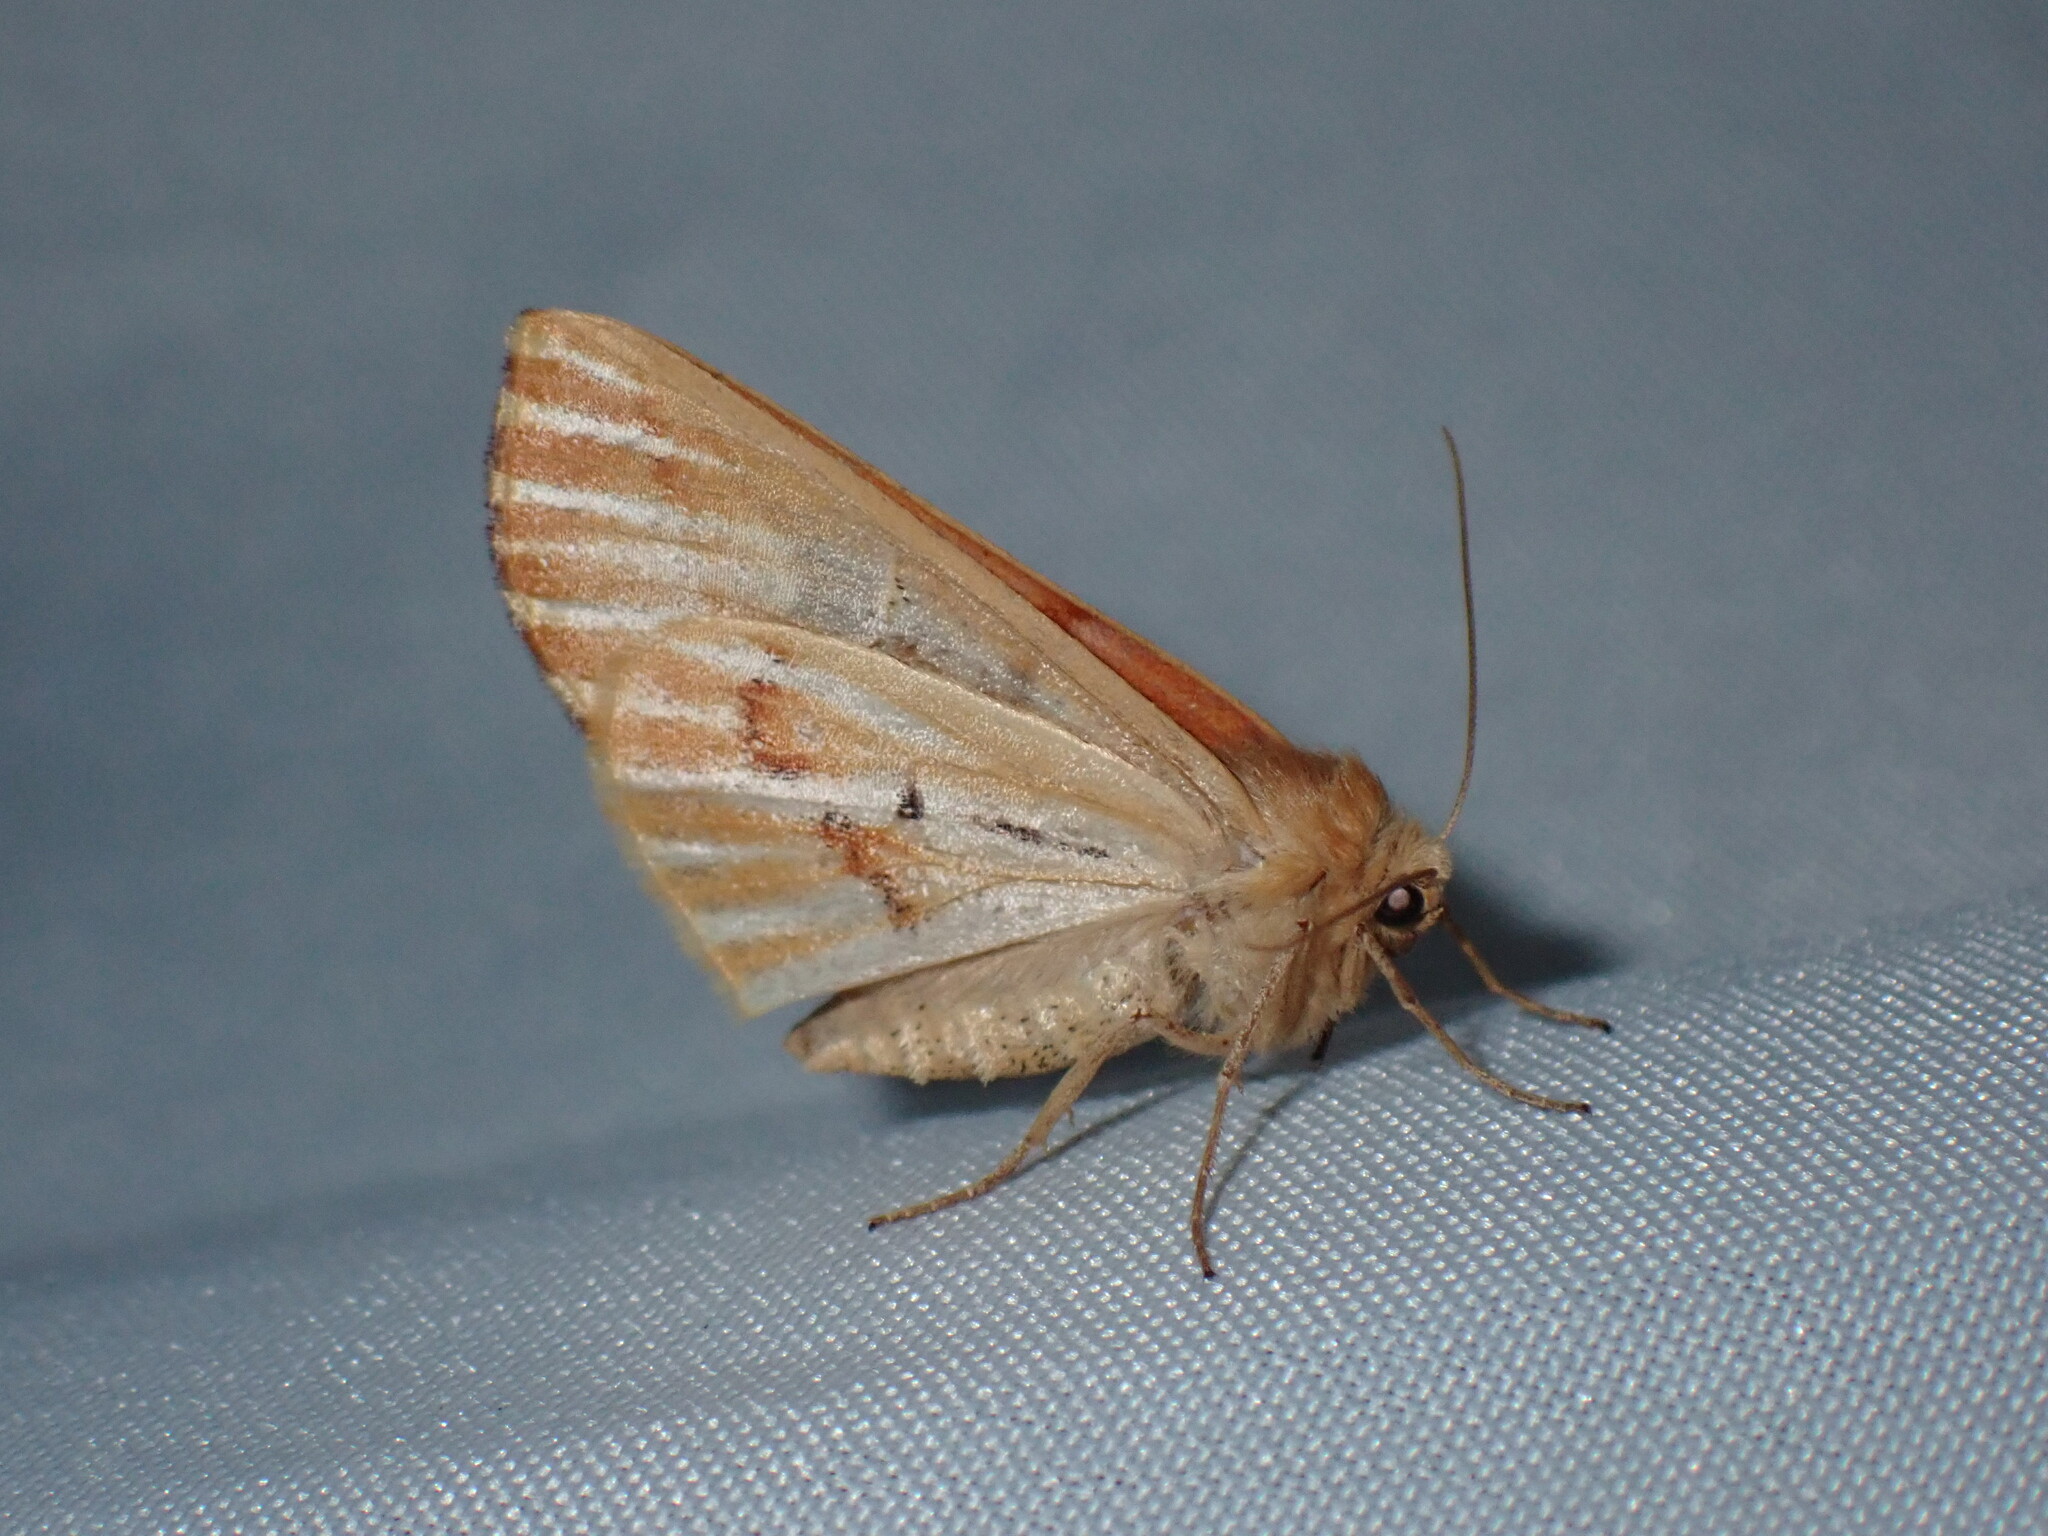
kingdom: Animalia
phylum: Arthropoda
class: Insecta
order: Lepidoptera
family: Geometridae
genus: Caripeta
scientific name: Caripeta aequaliaria
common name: Red girdle moth
